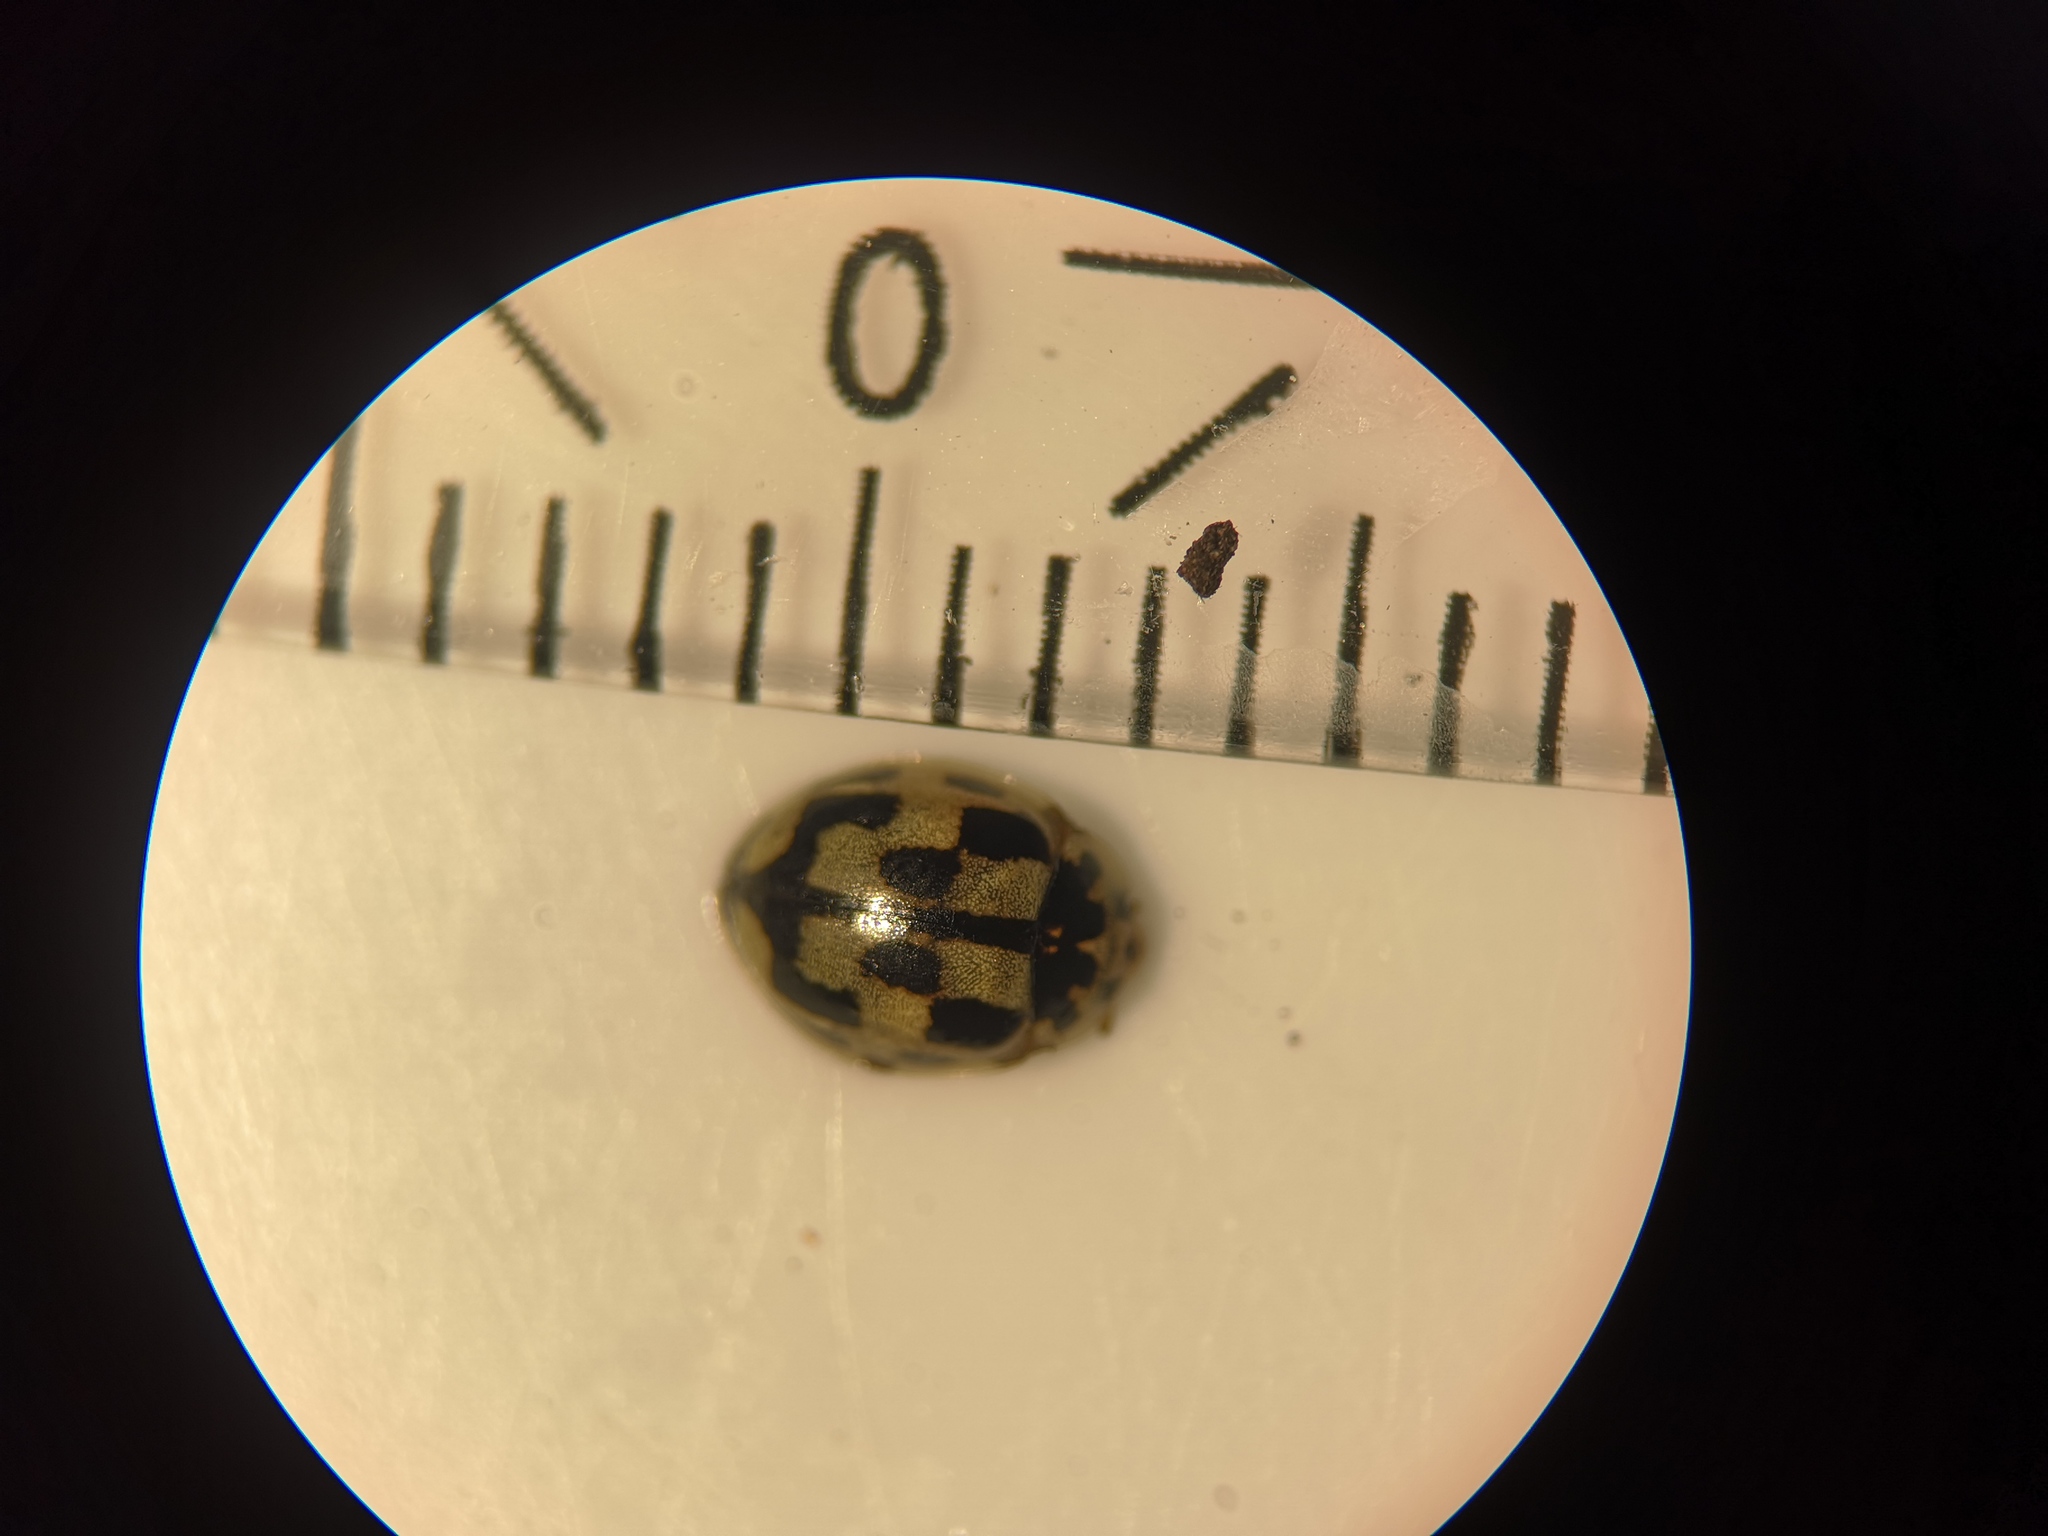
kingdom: Animalia
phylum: Arthropoda
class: Insecta
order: Coleoptera
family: Coccinellidae
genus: Propylaea
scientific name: Propylaea quatuordecimpunctata
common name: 14-spotted ladybird beetle
